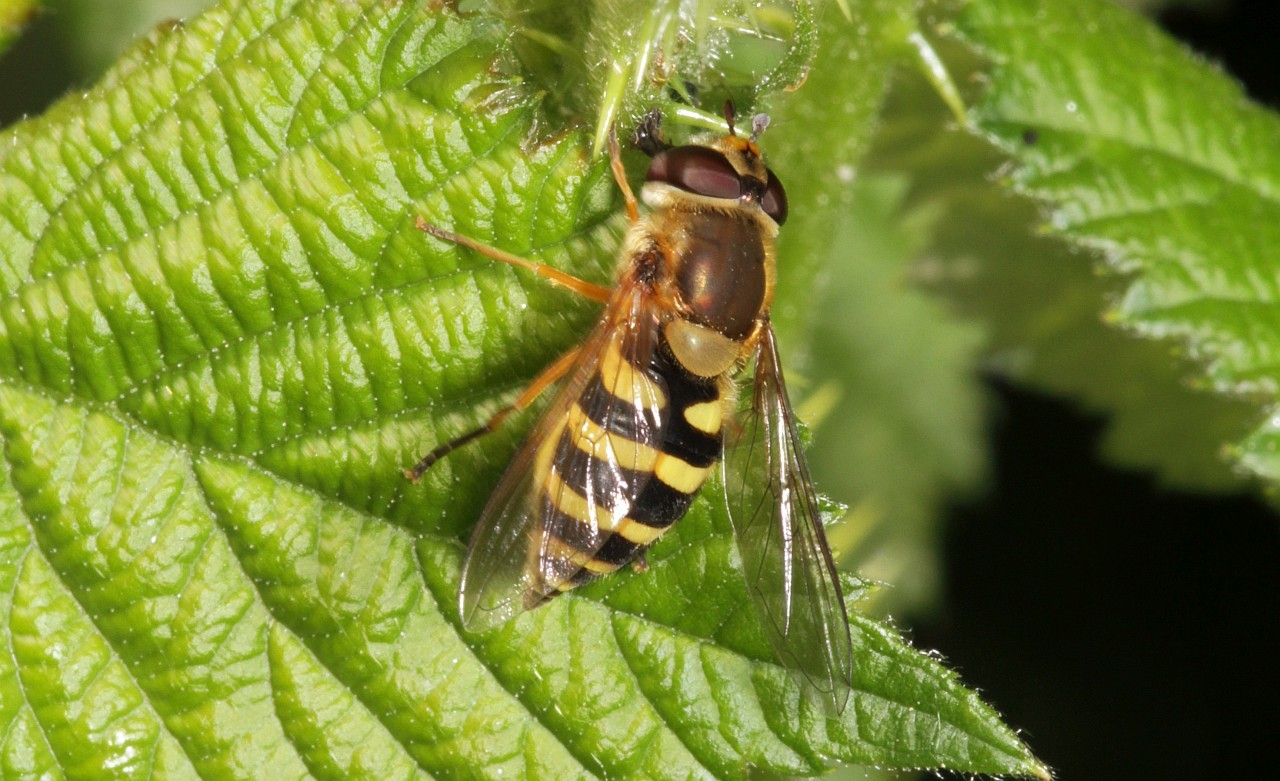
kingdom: Animalia
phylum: Arthropoda
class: Insecta
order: Diptera
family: Syrphidae
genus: Syrphus
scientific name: Syrphus ribesii
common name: Common flower fly
